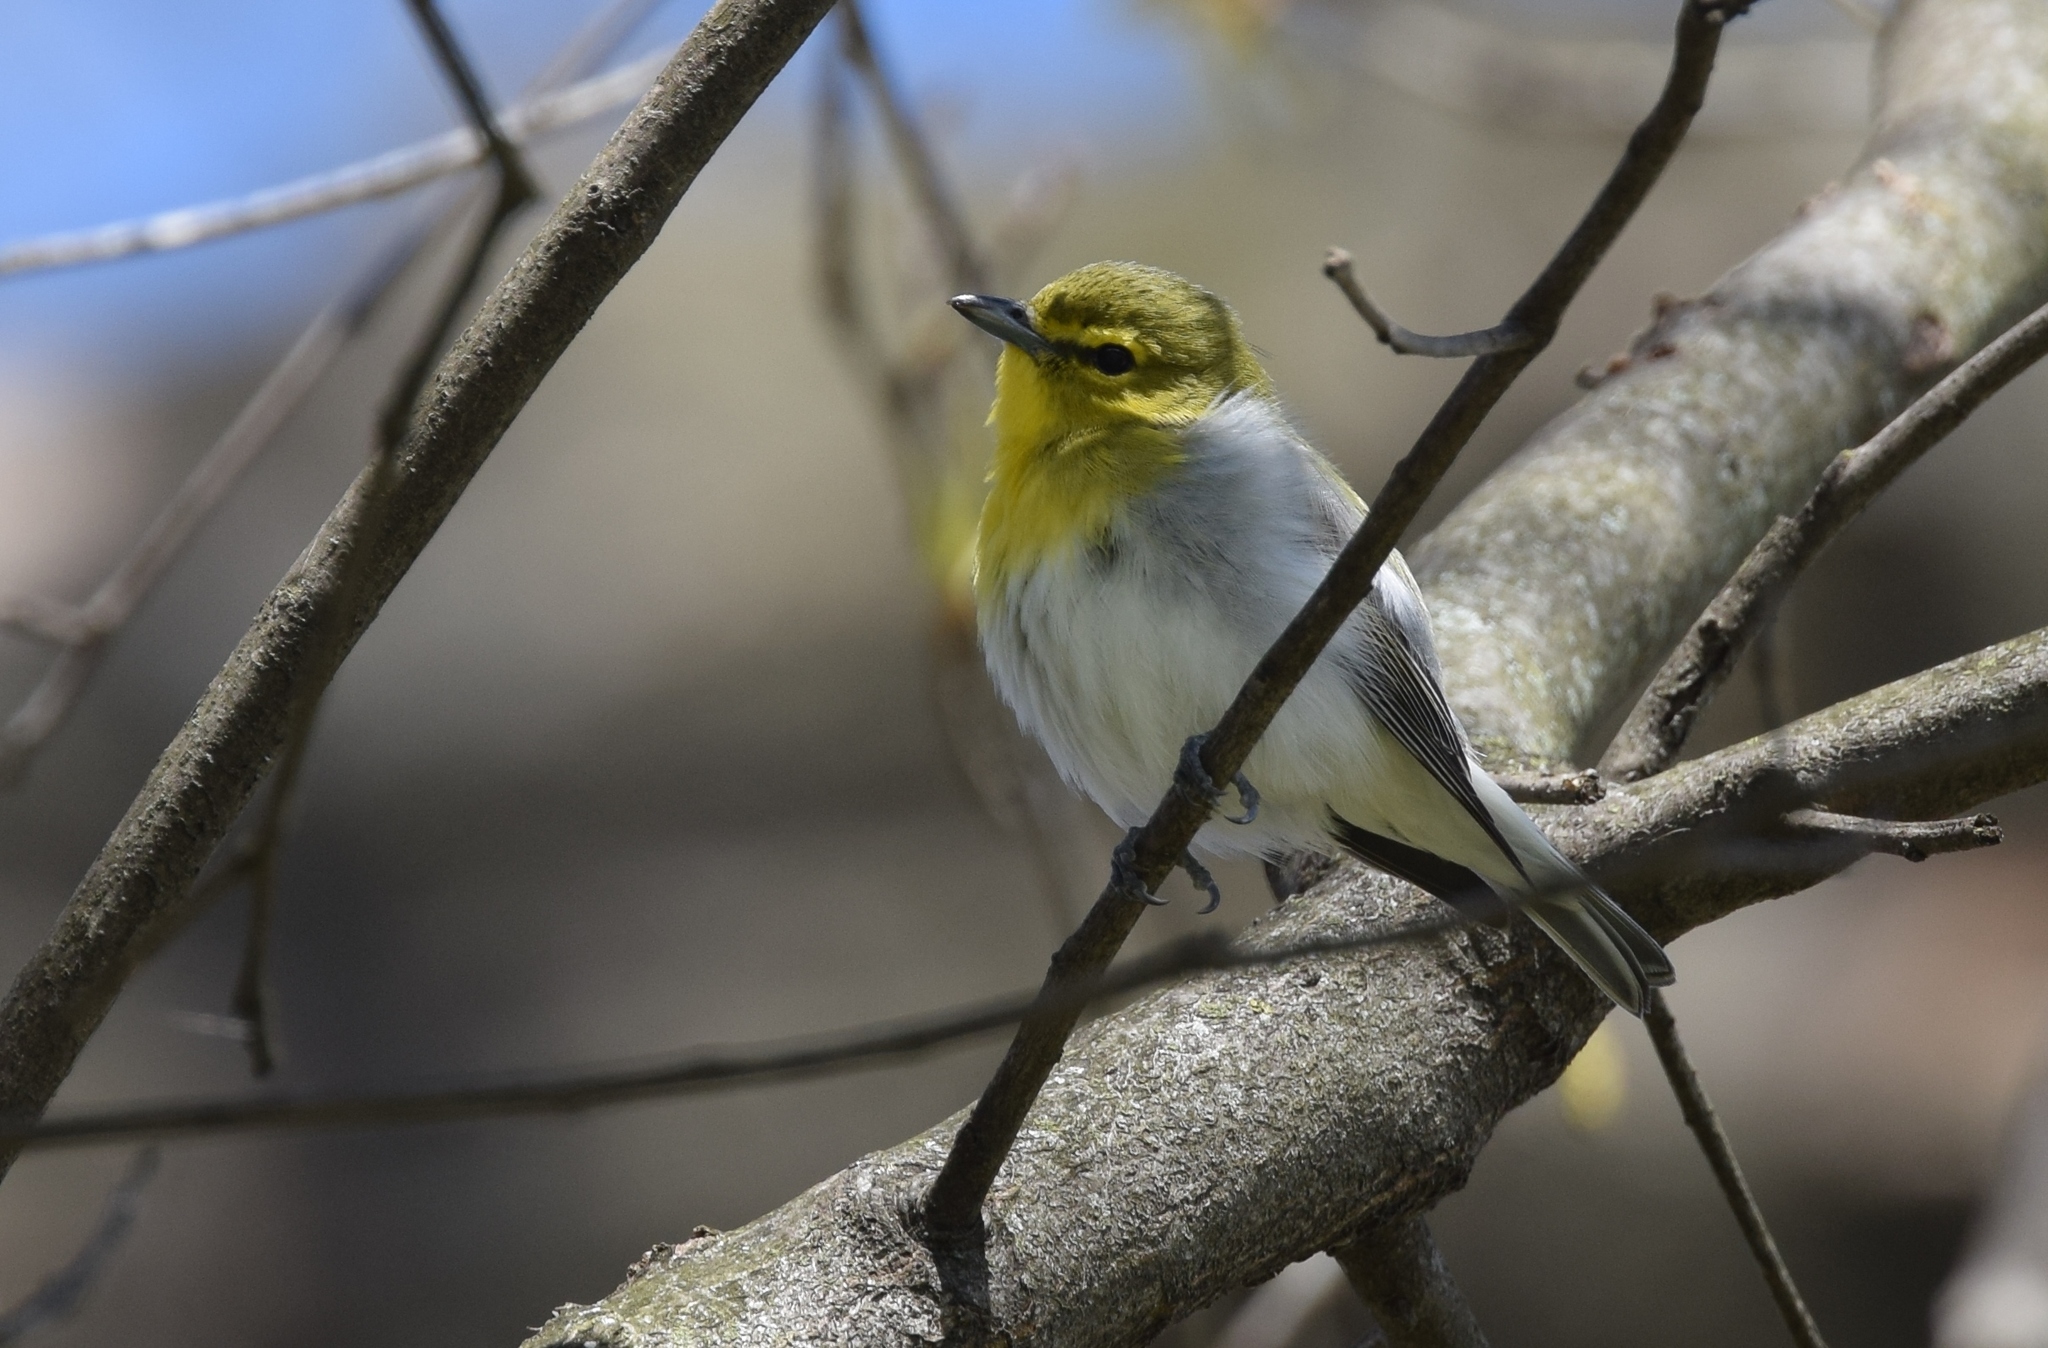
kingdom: Animalia
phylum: Chordata
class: Aves
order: Passeriformes
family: Vireonidae
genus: Vireo
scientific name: Vireo flavifrons
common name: Yellow-throated vireo
